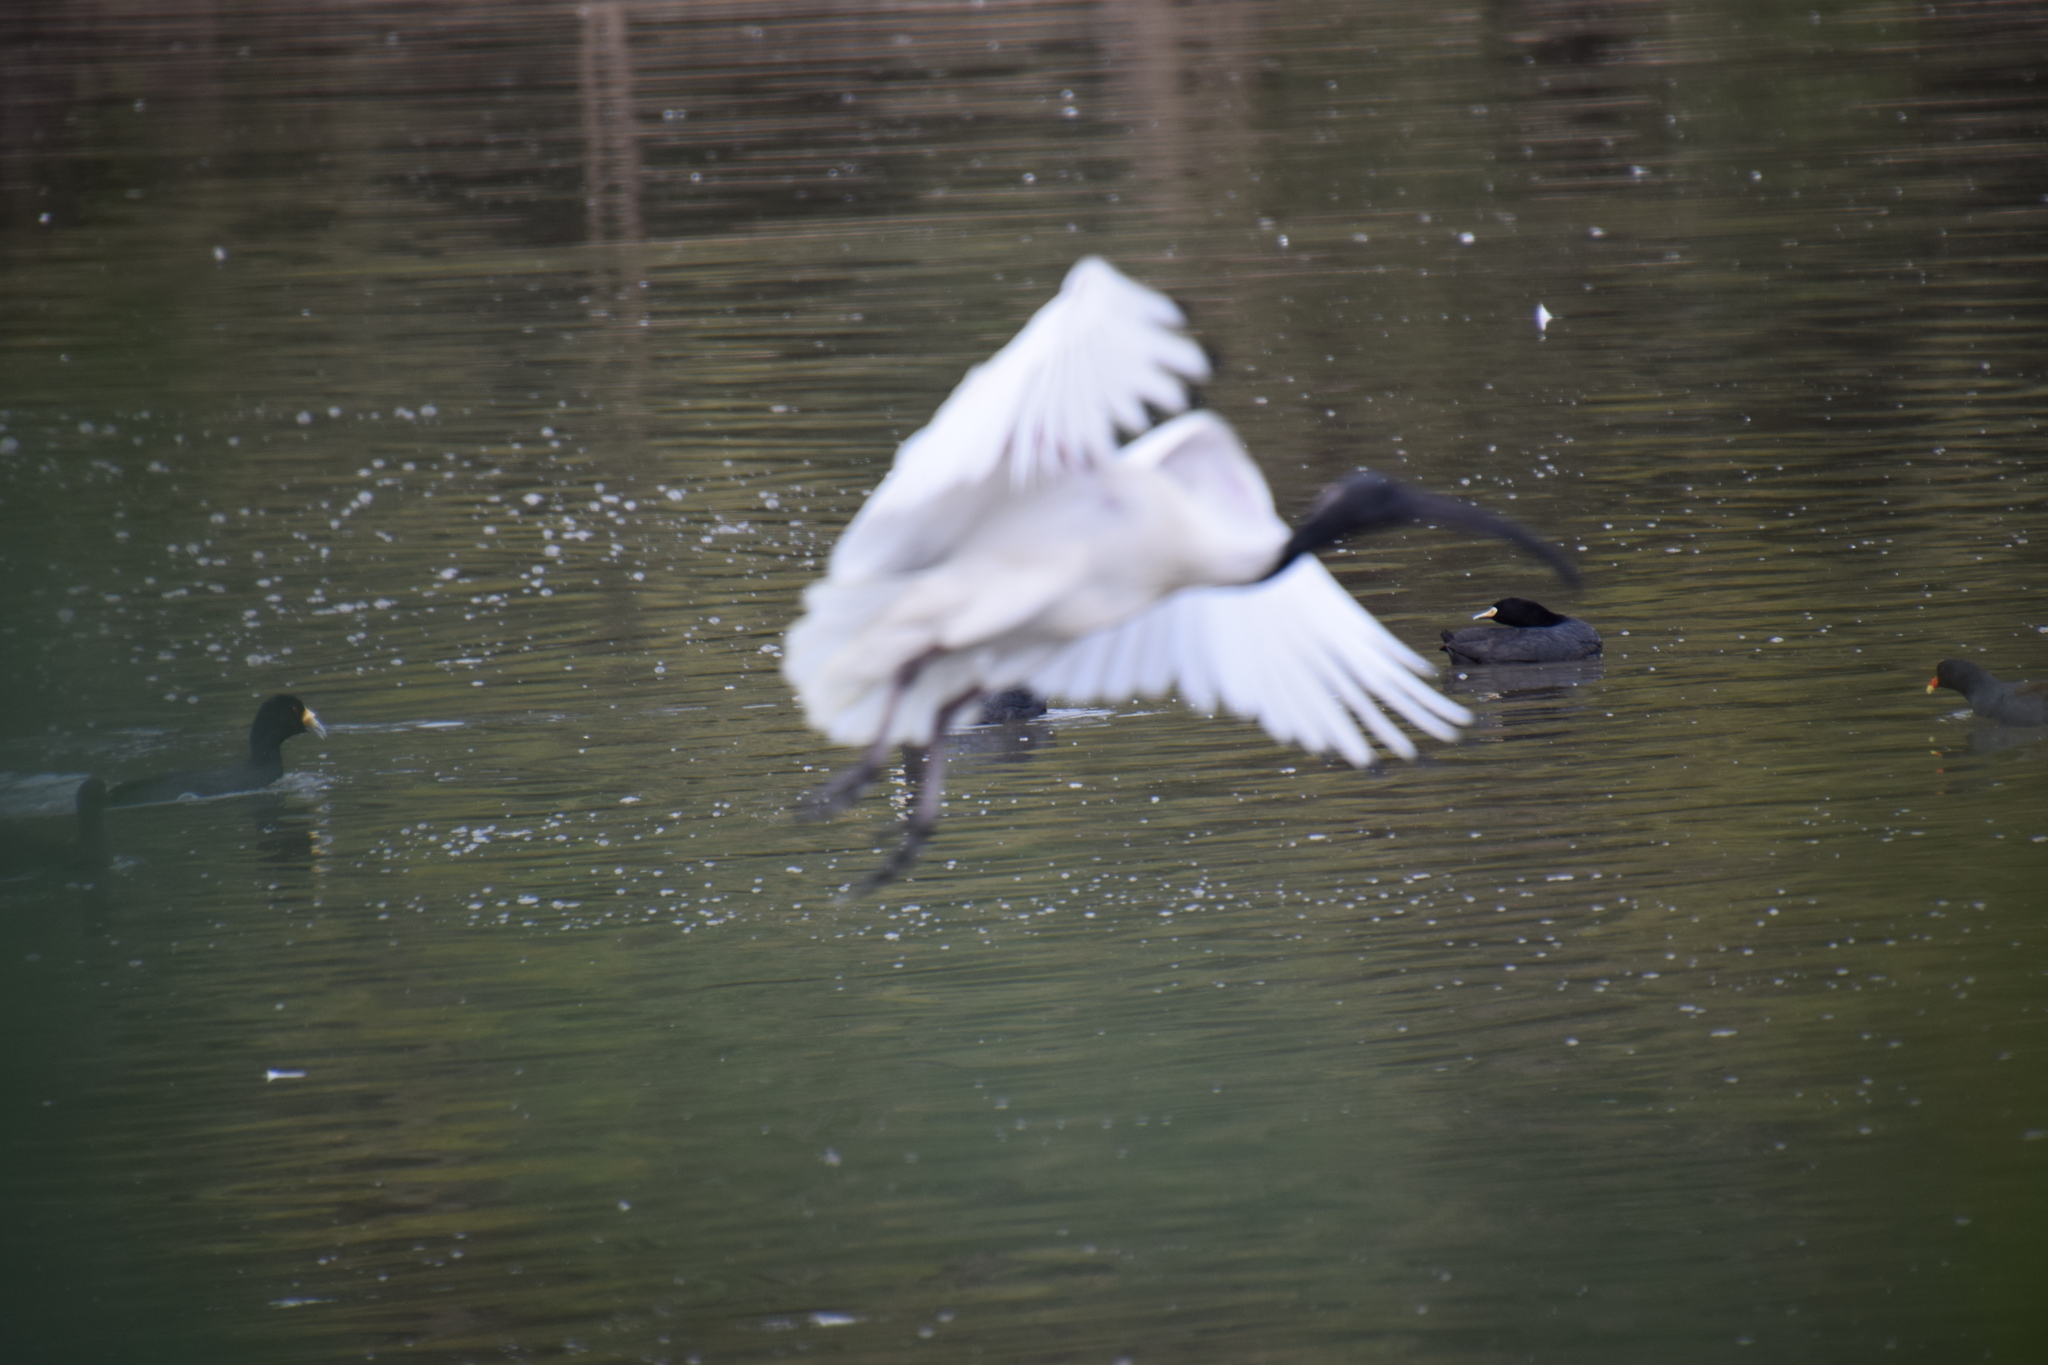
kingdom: Animalia
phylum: Chordata
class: Aves
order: Pelecaniformes
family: Threskiornithidae
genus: Threskiornis
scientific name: Threskiornis molucca
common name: Australian white ibis
